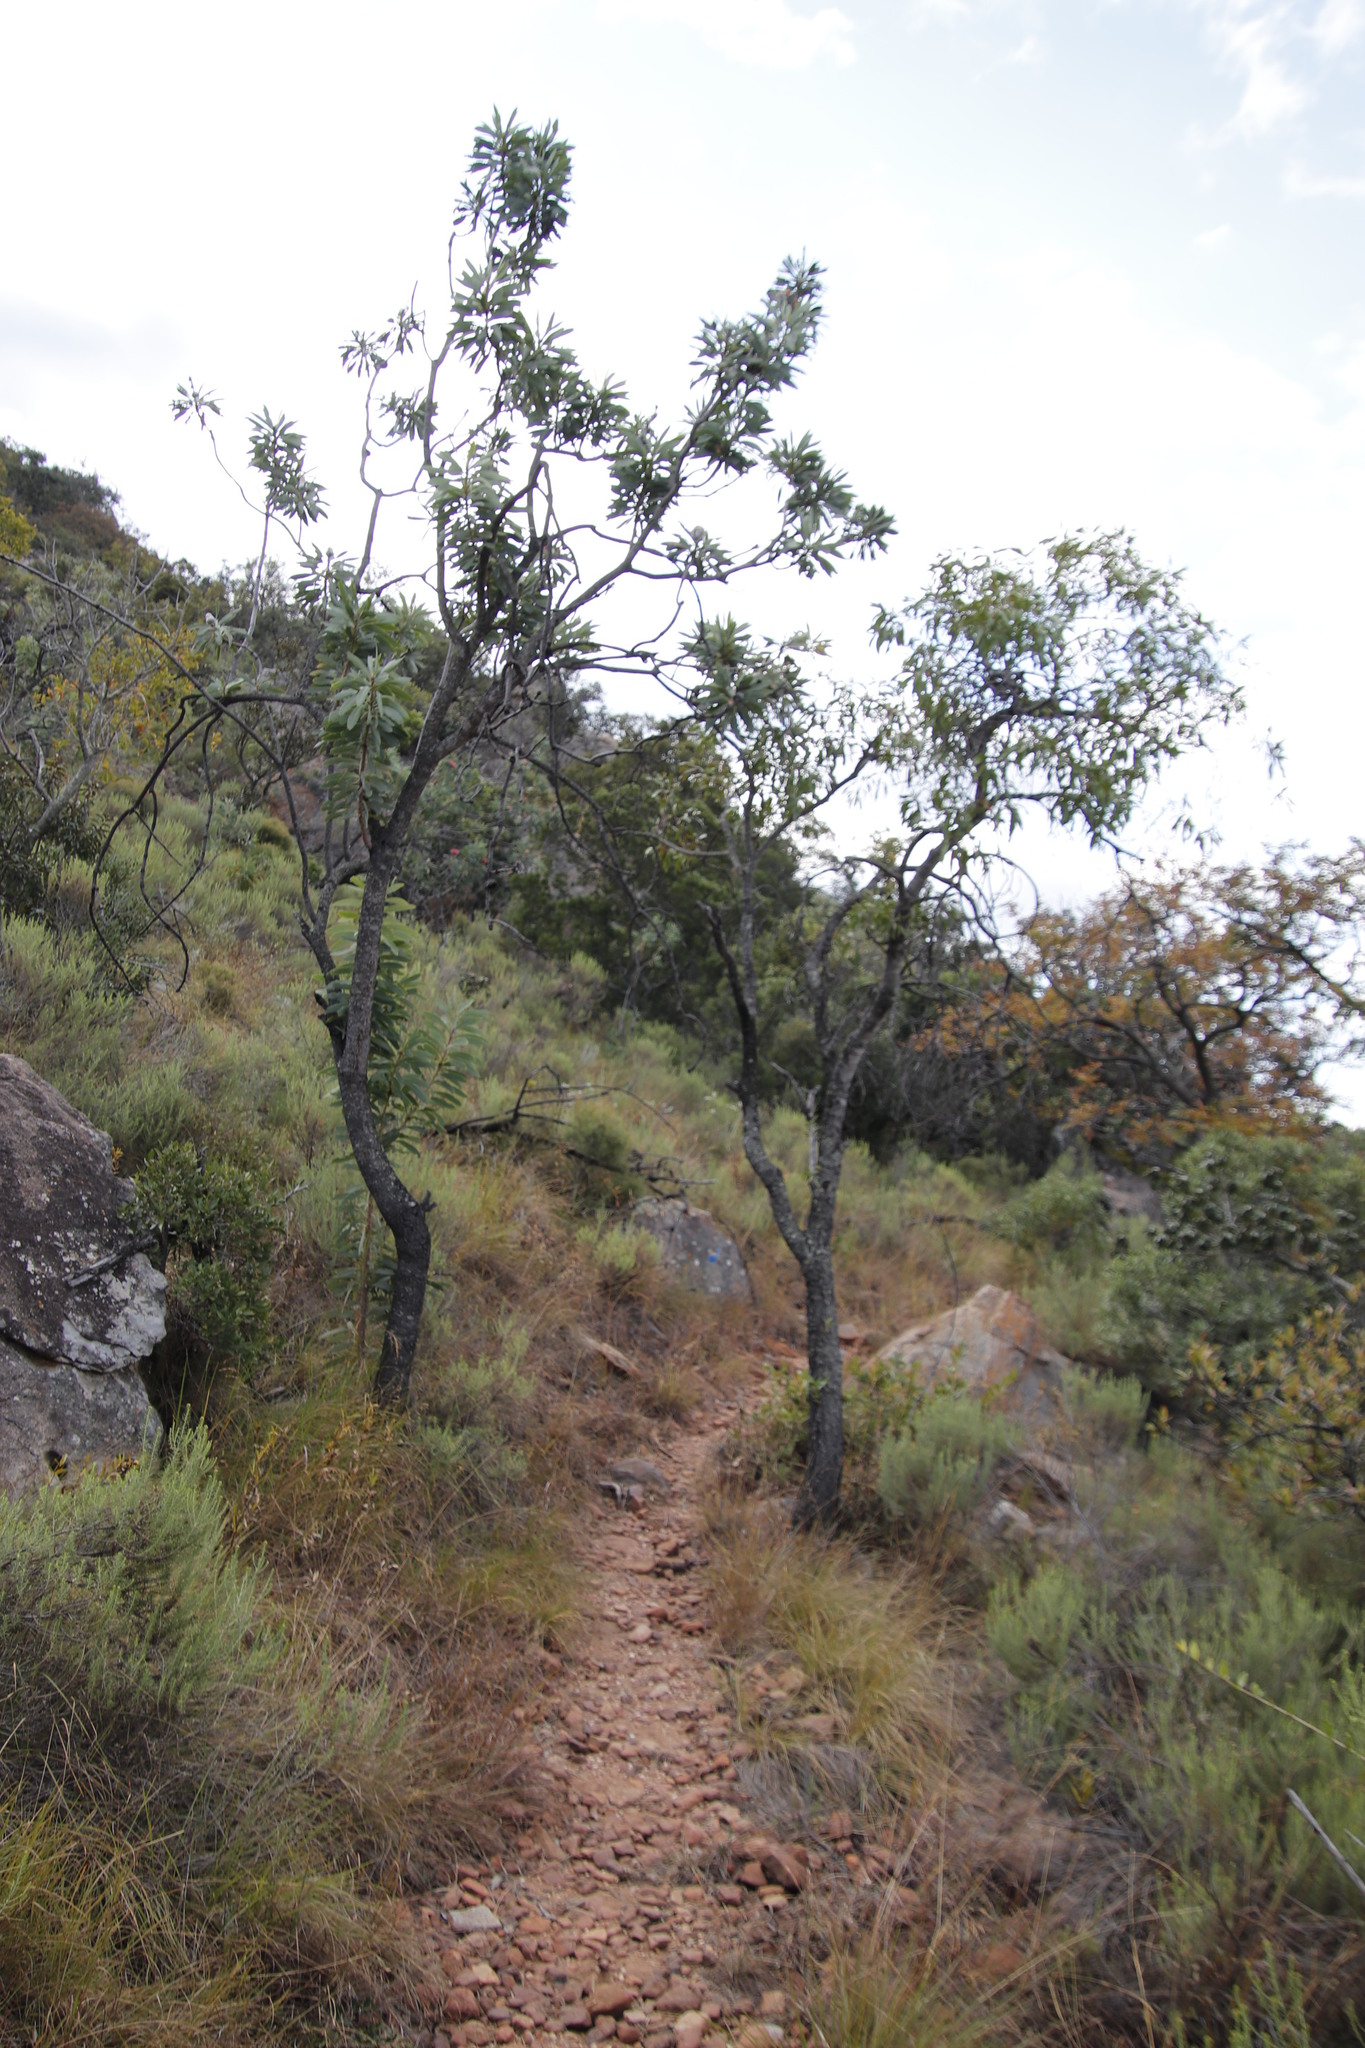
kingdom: Plantae
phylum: Tracheophyta
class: Magnoliopsida
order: Proteales
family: Proteaceae
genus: Protea
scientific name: Protea laetans
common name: Blyde protea
